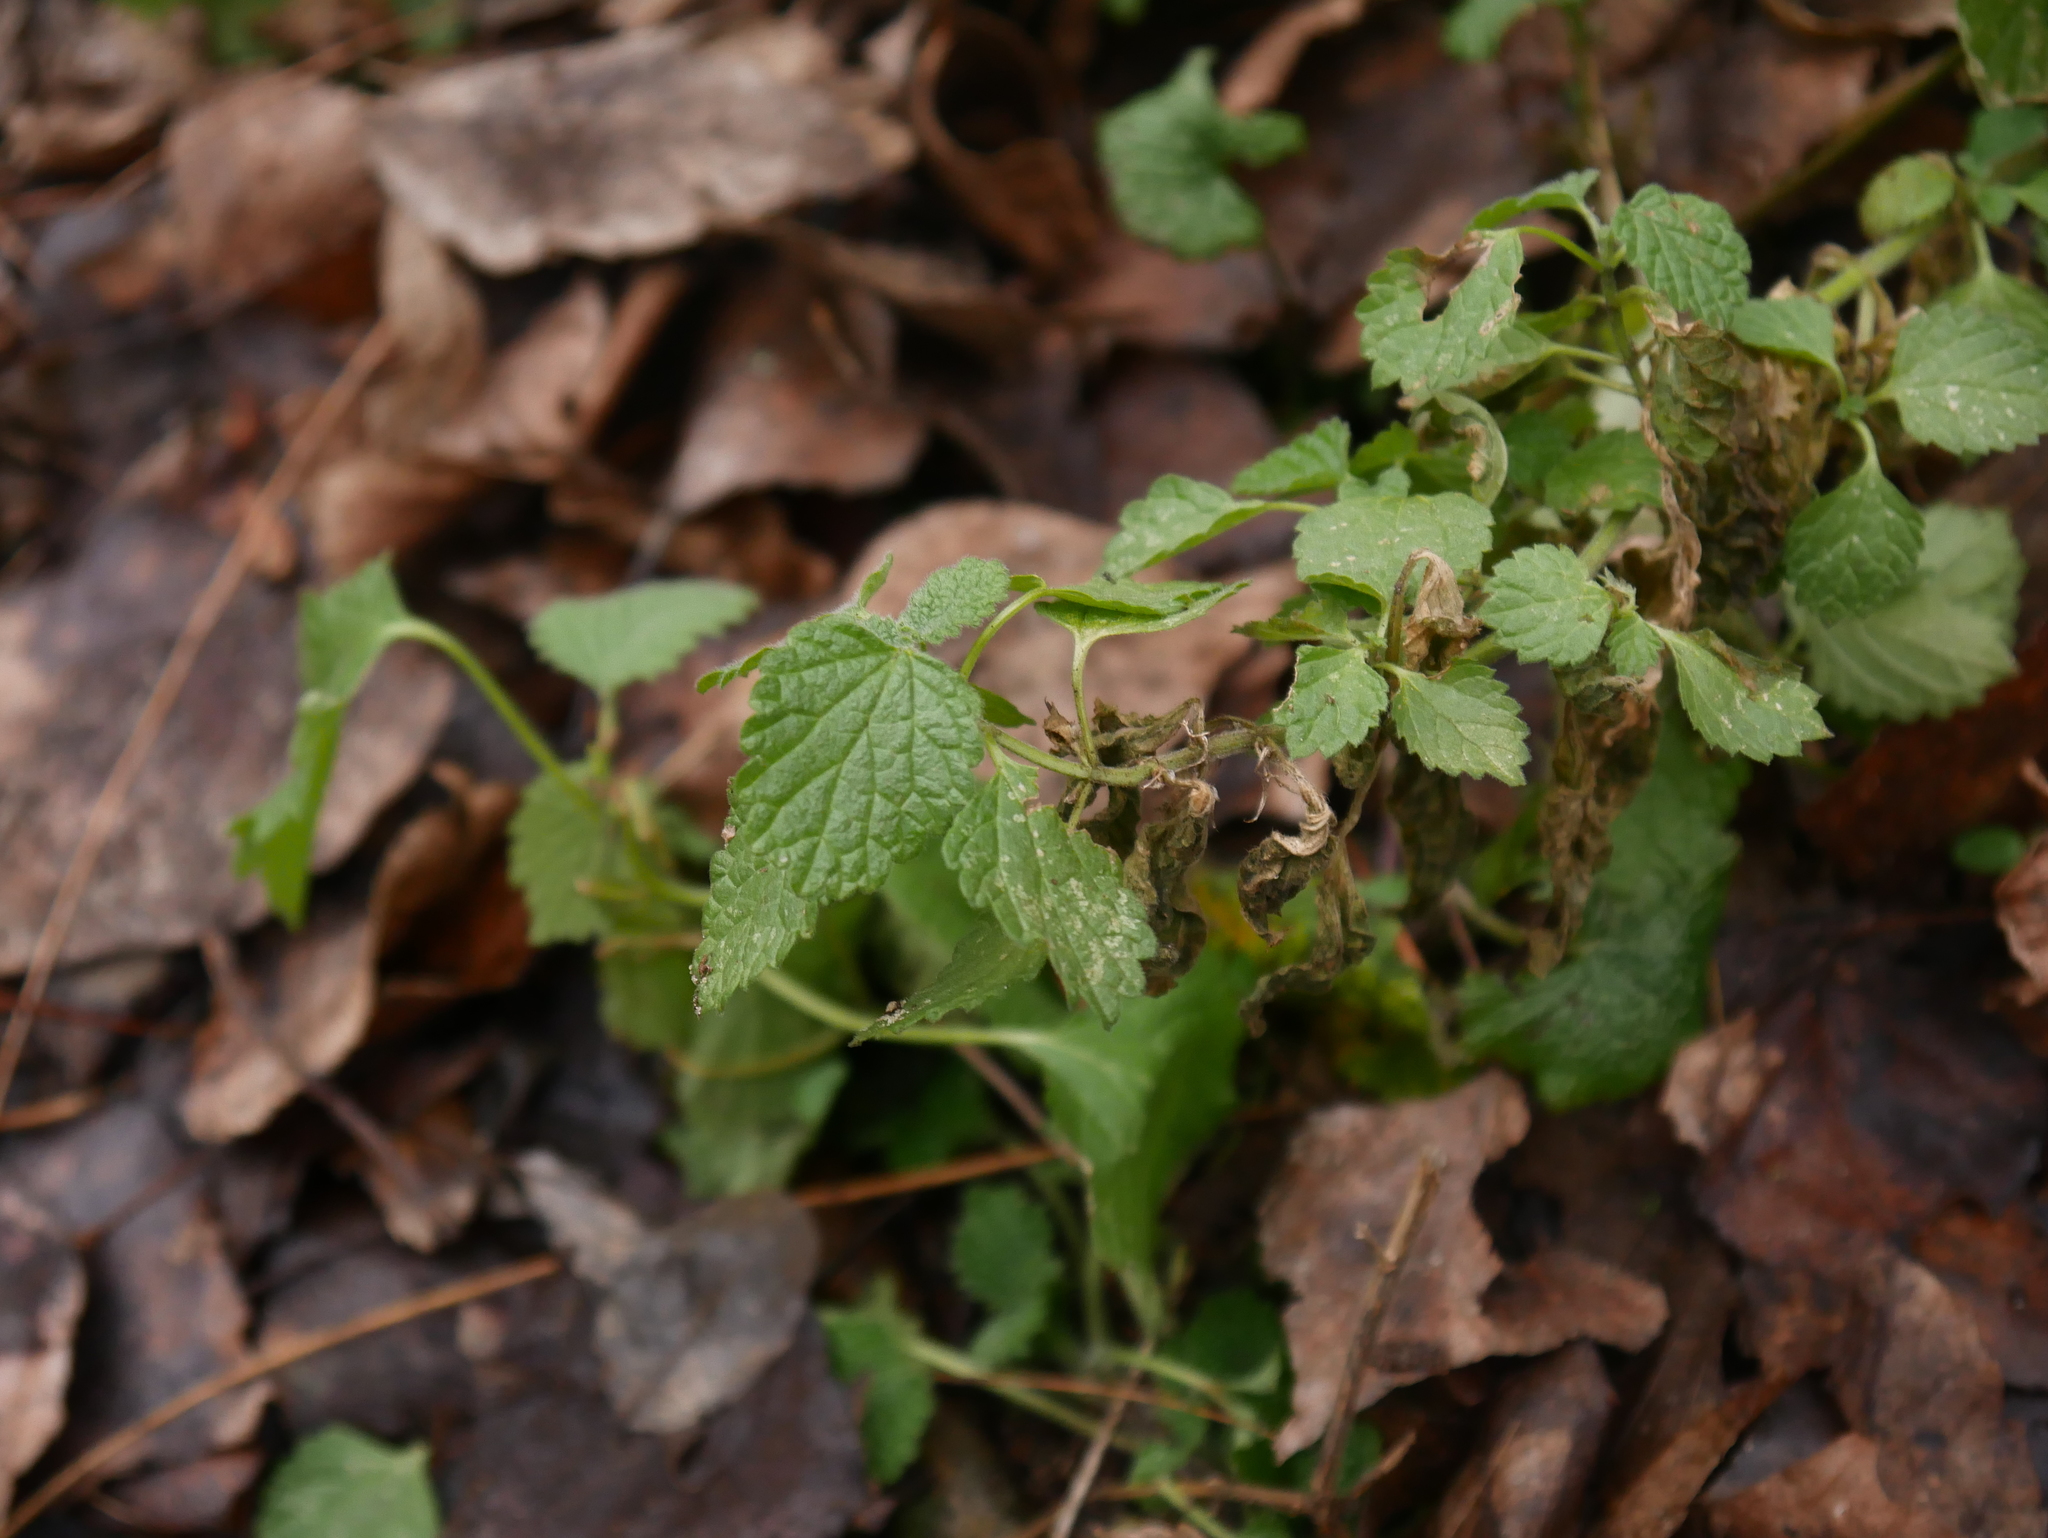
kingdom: Plantae
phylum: Tracheophyta
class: Magnoliopsida
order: Lamiales
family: Lamiaceae
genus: Ballota
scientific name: Ballota nigra
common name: Black horehound
